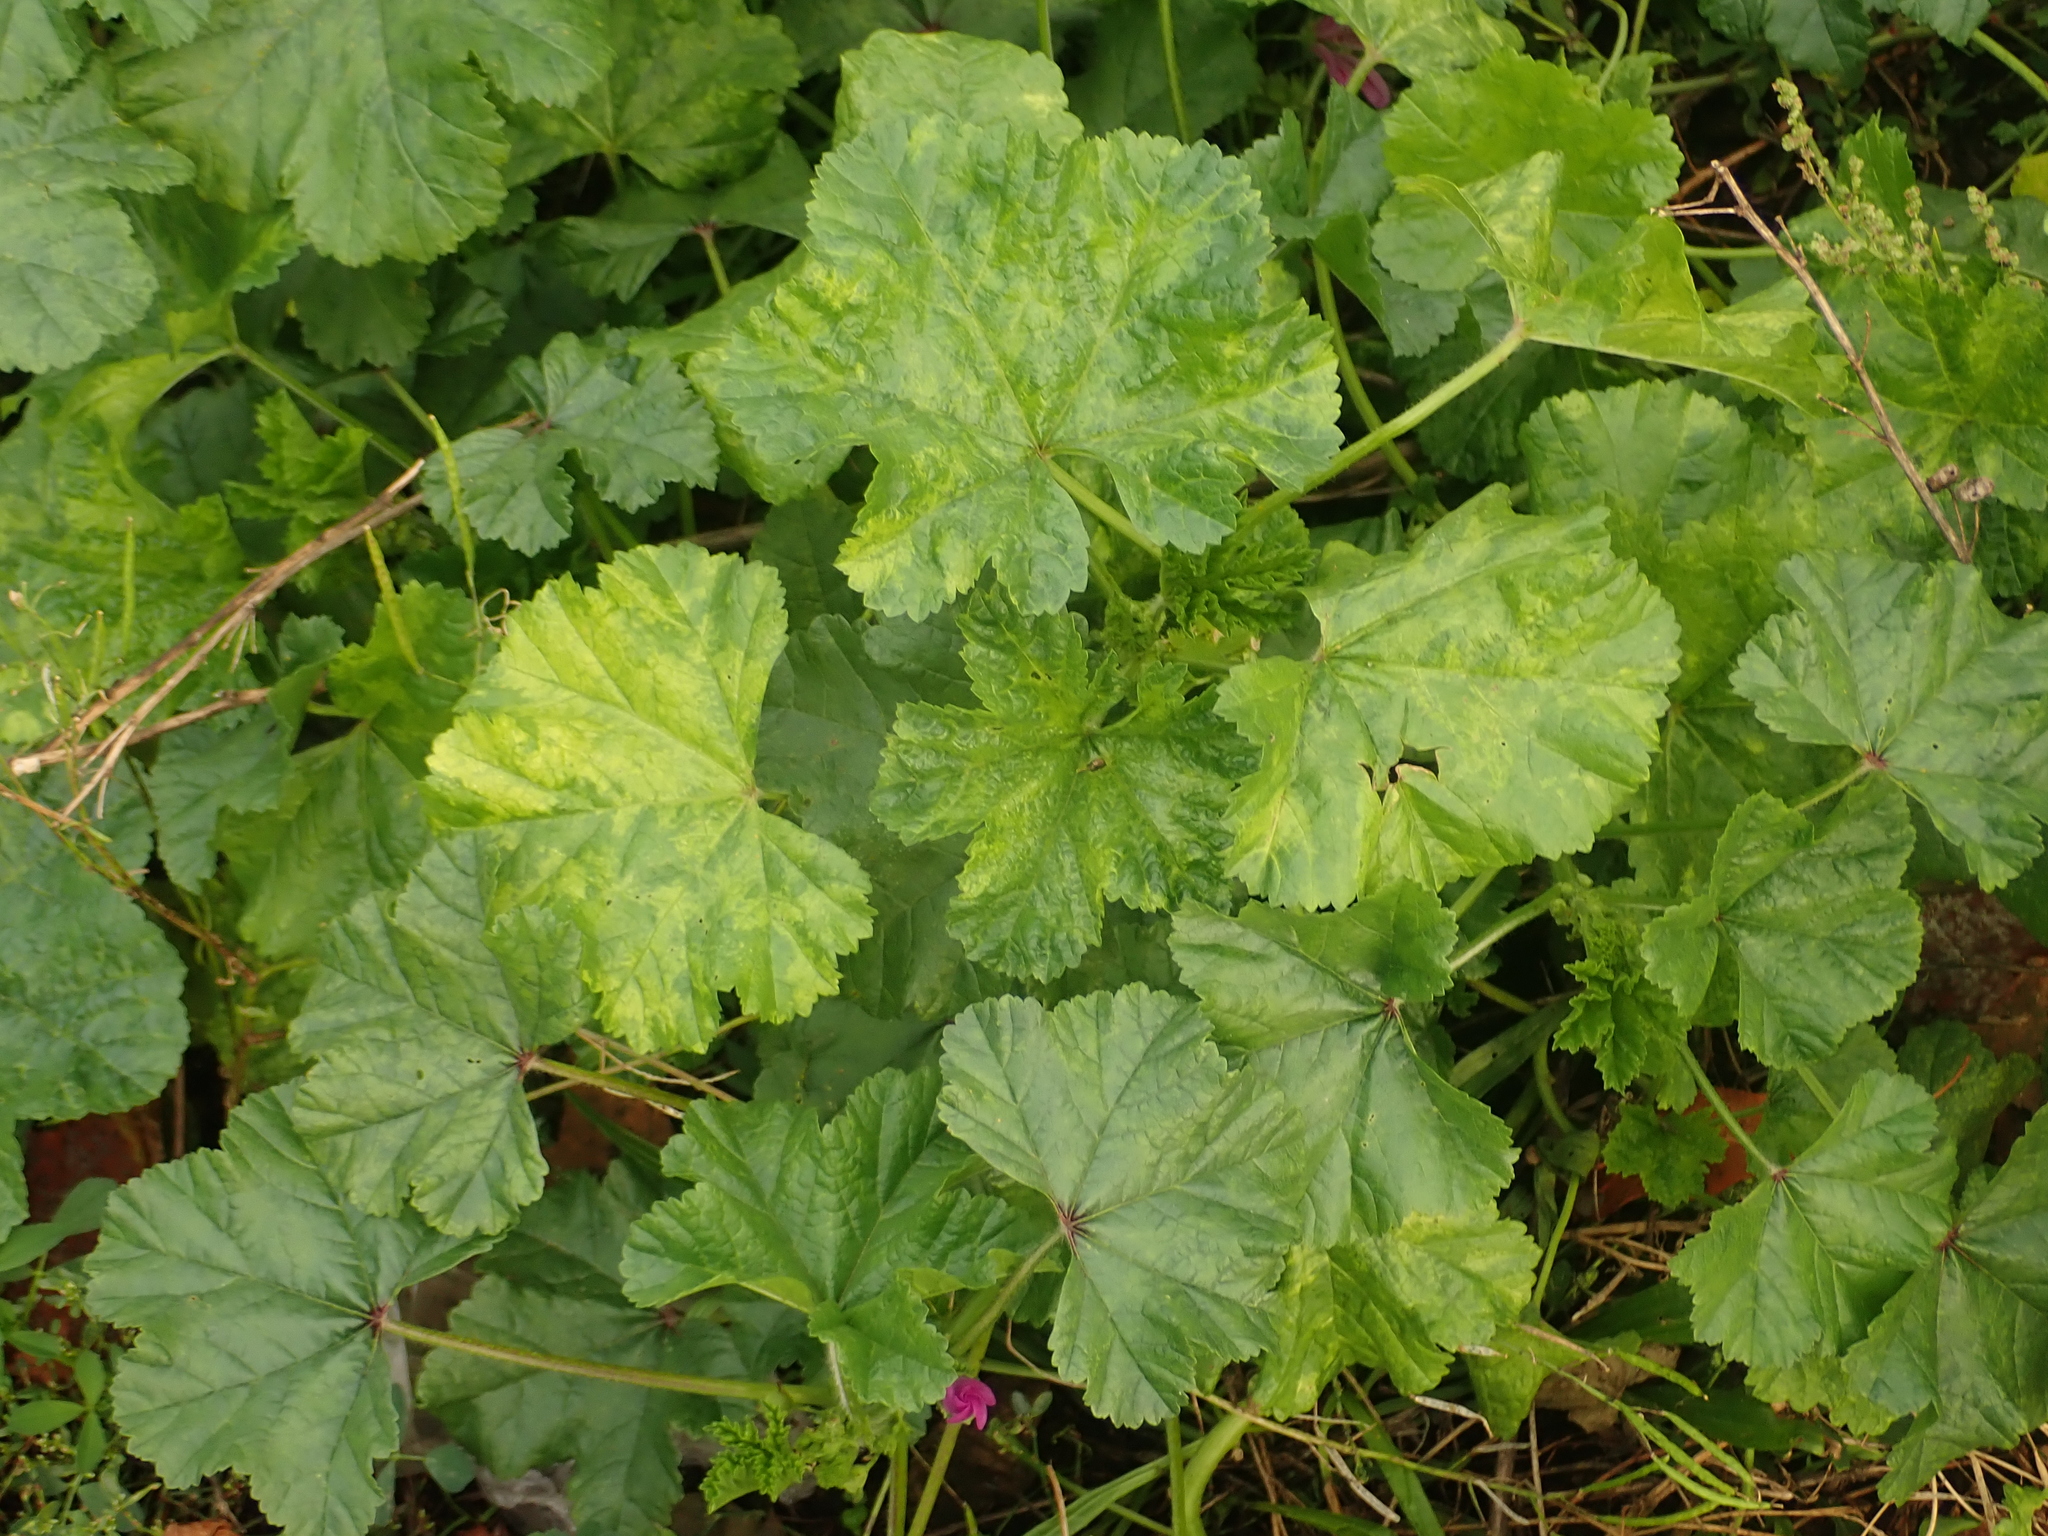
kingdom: Plantae
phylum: Tracheophyta
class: Magnoliopsida
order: Malvales
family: Malvaceae
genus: Malva
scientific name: Malva sylvestris
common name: Common mallow
